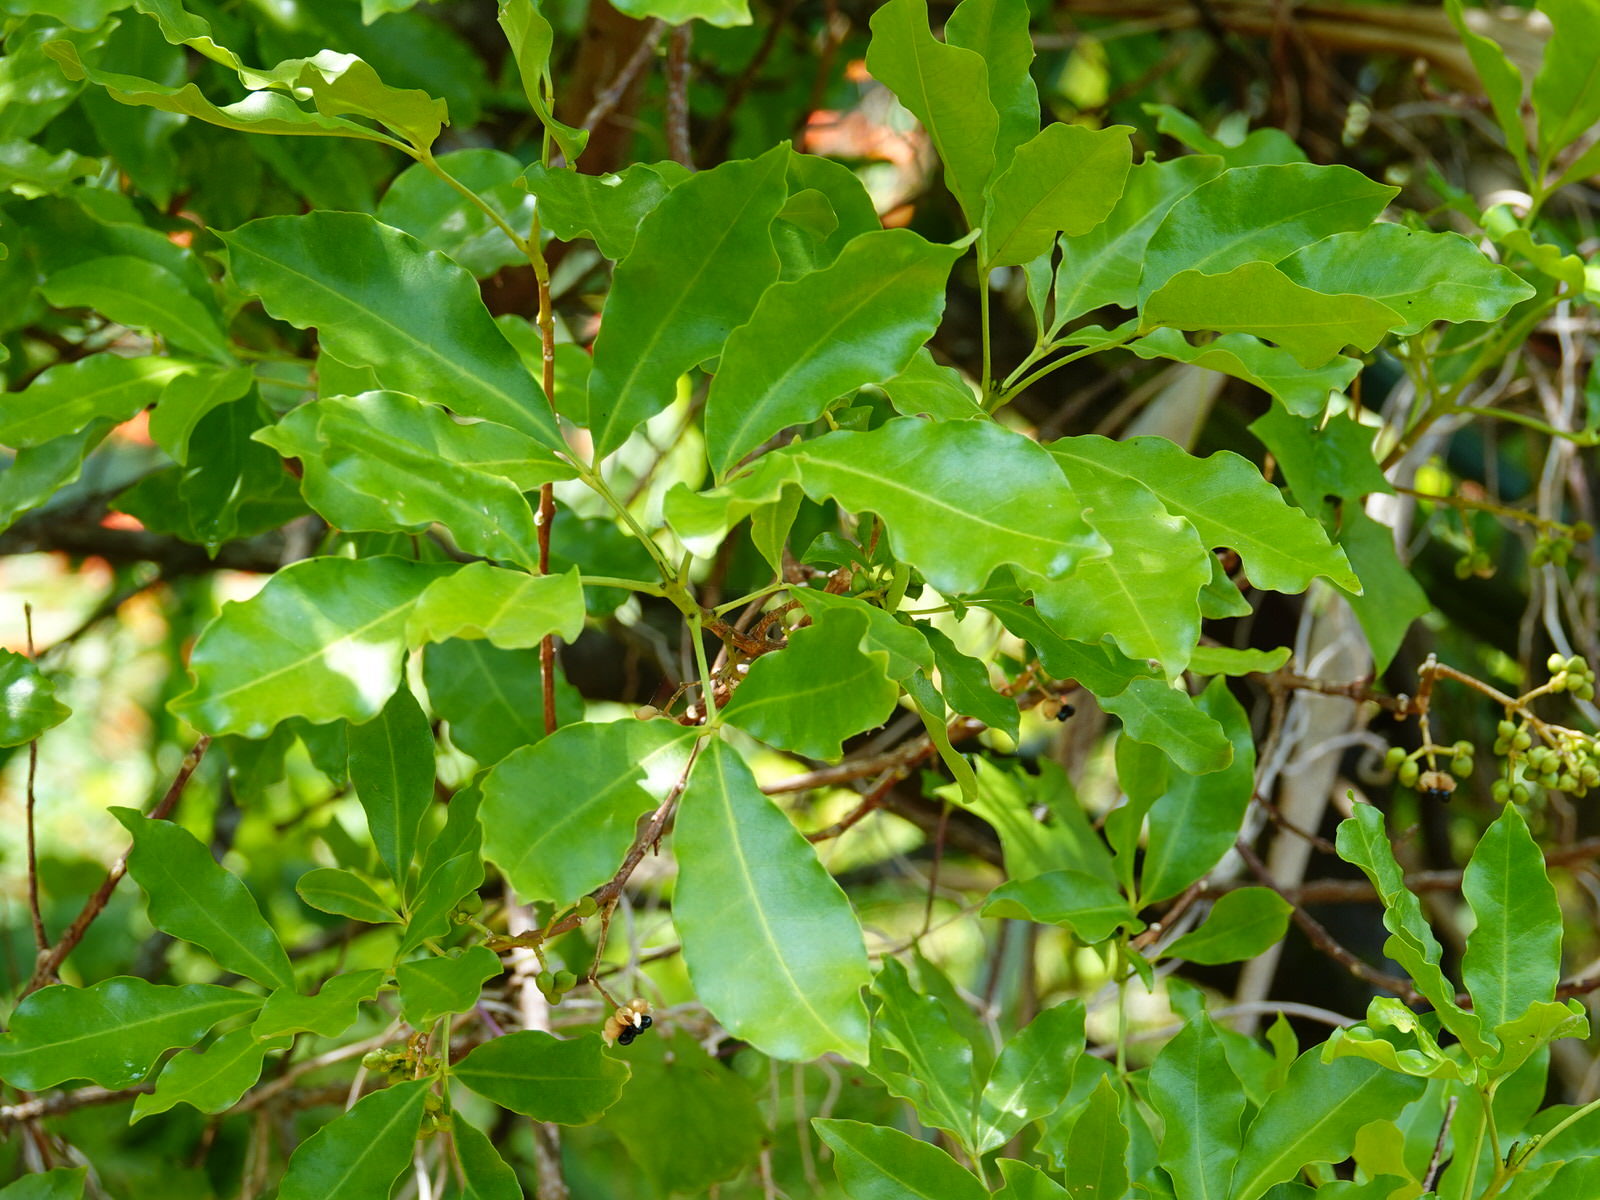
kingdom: Plantae
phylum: Tracheophyta
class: Magnoliopsida
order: Sapindales
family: Rutaceae
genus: Melicope
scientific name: Melicope ternata
